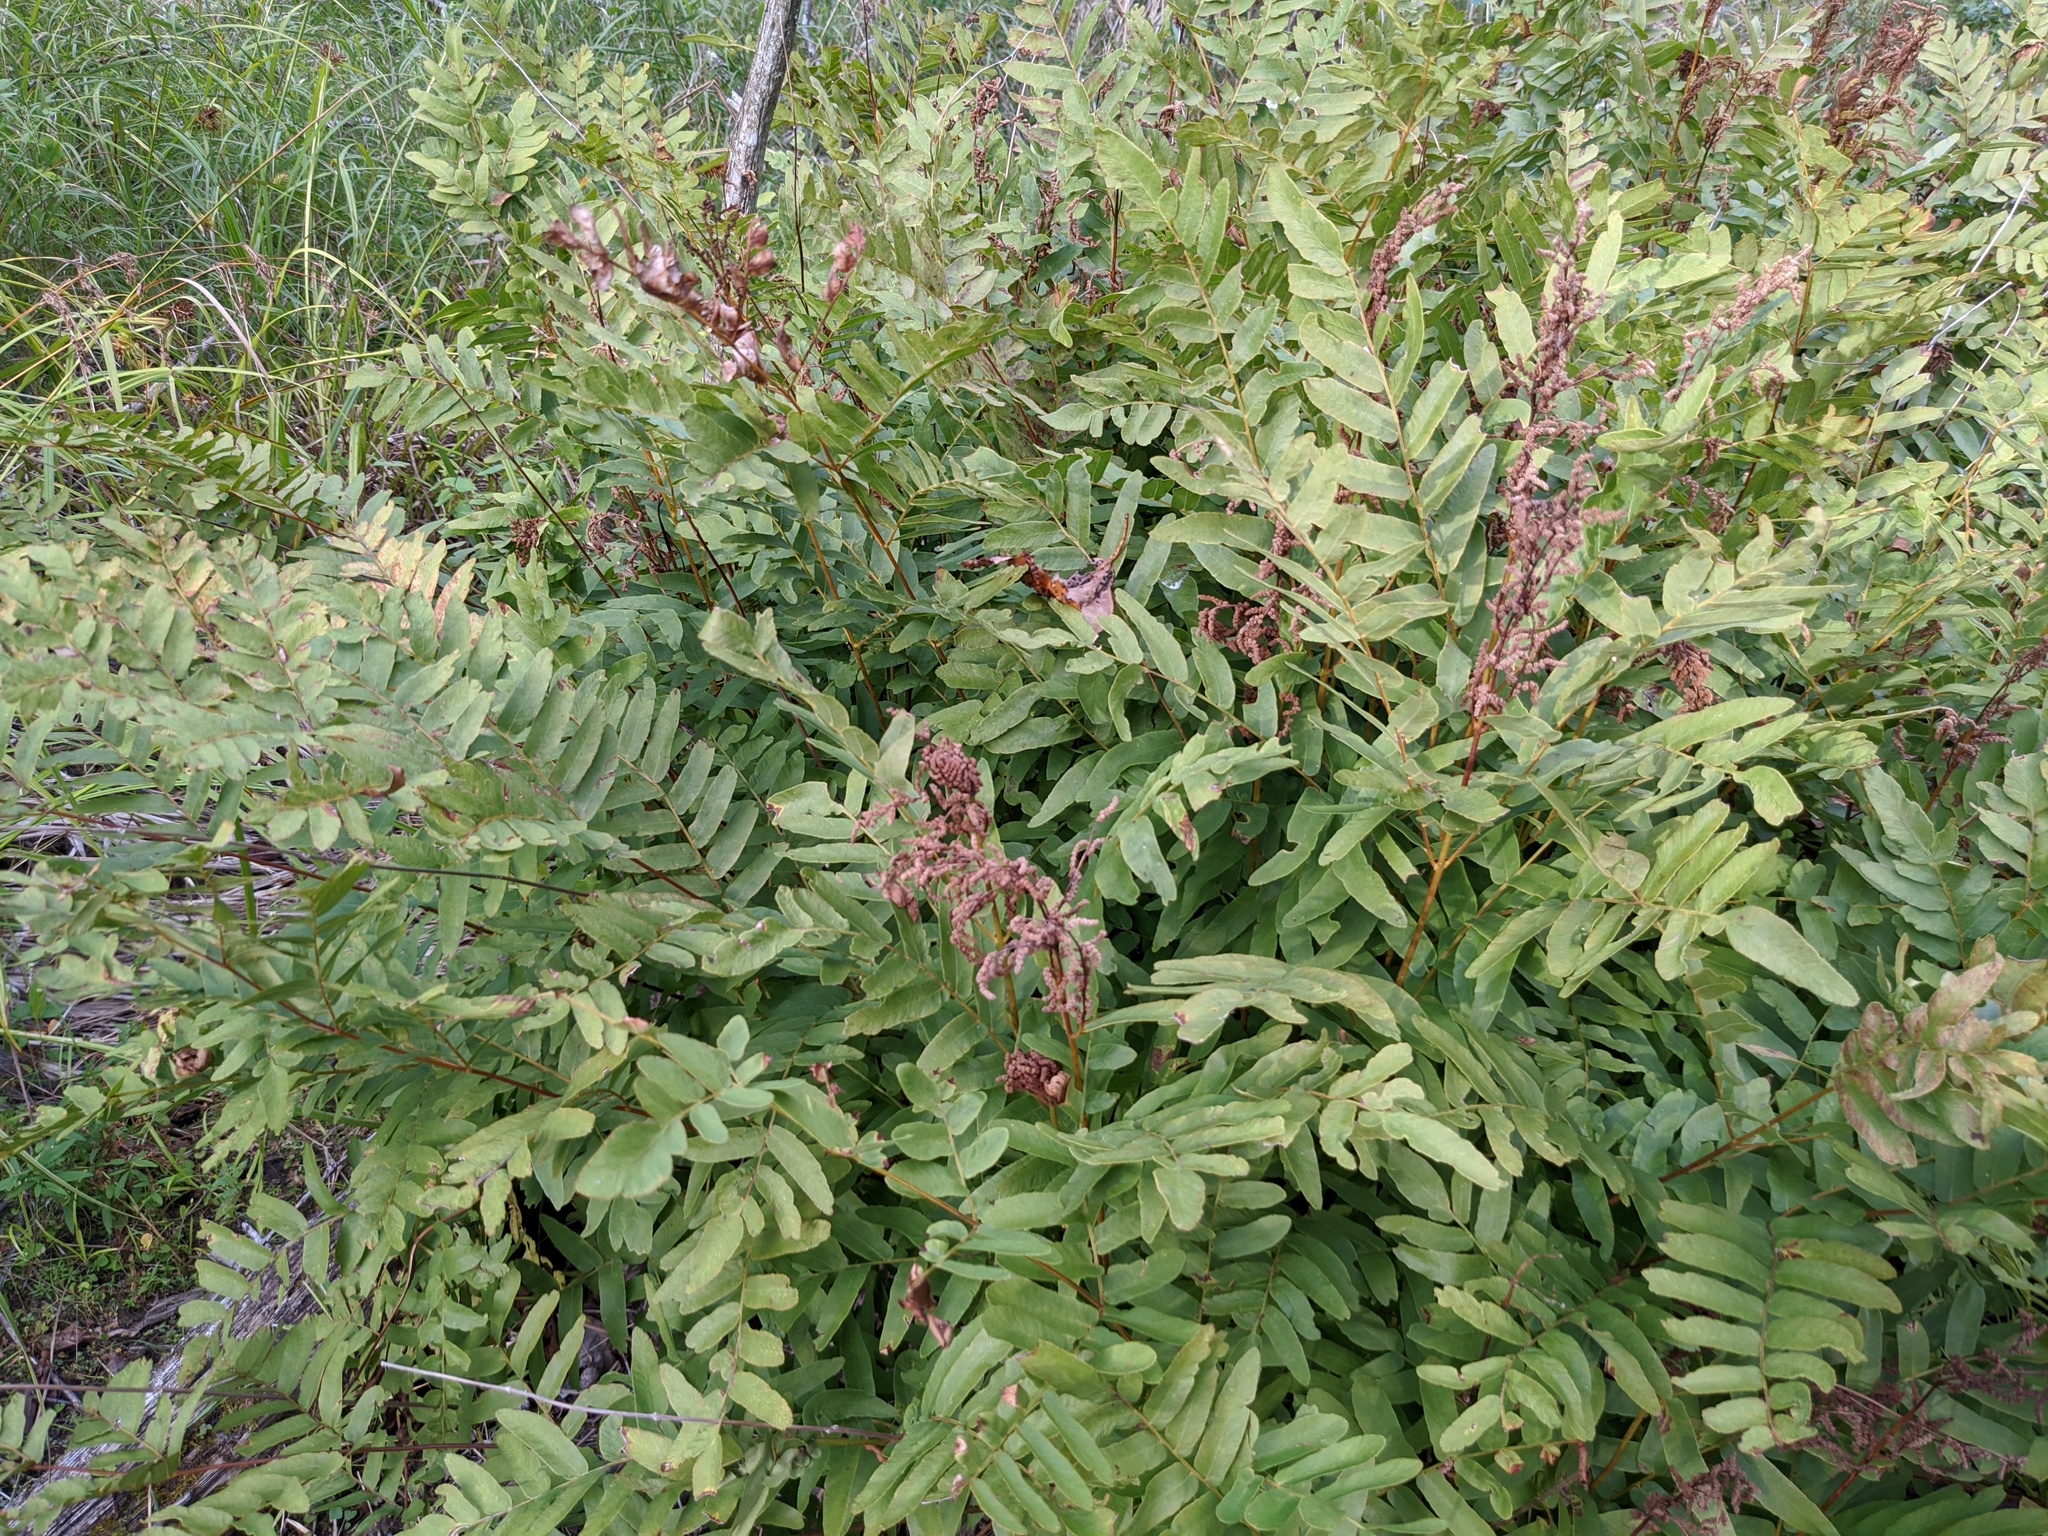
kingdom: Plantae
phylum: Tracheophyta
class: Polypodiopsida
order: Osmundales
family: Osmundaceae
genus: Osmunda
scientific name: Osmunda spectabilis
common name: American royal fern
